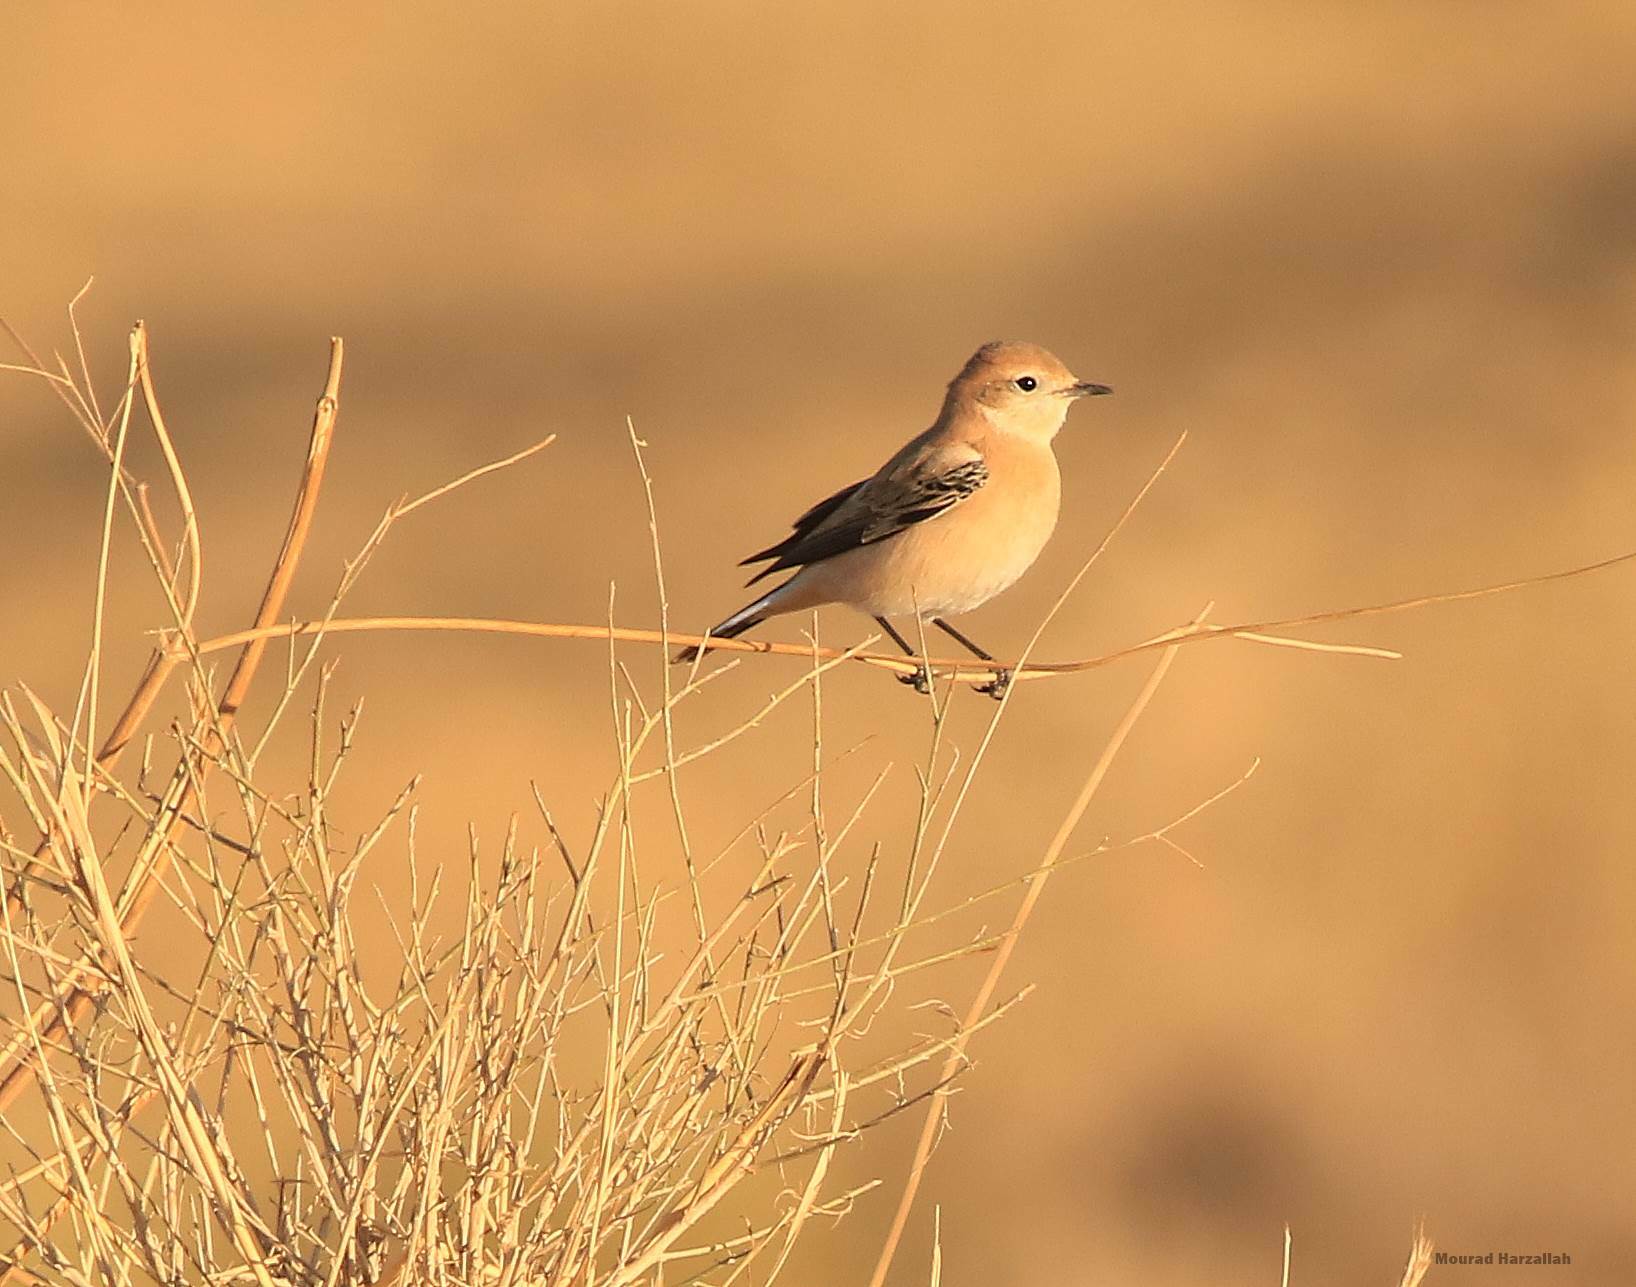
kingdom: Animalia
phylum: Chordata
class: Aves
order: Passeriformes
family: Muscicapidae
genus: Oenanthe
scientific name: Oenanthe hispanica
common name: Black-eared wheatear
